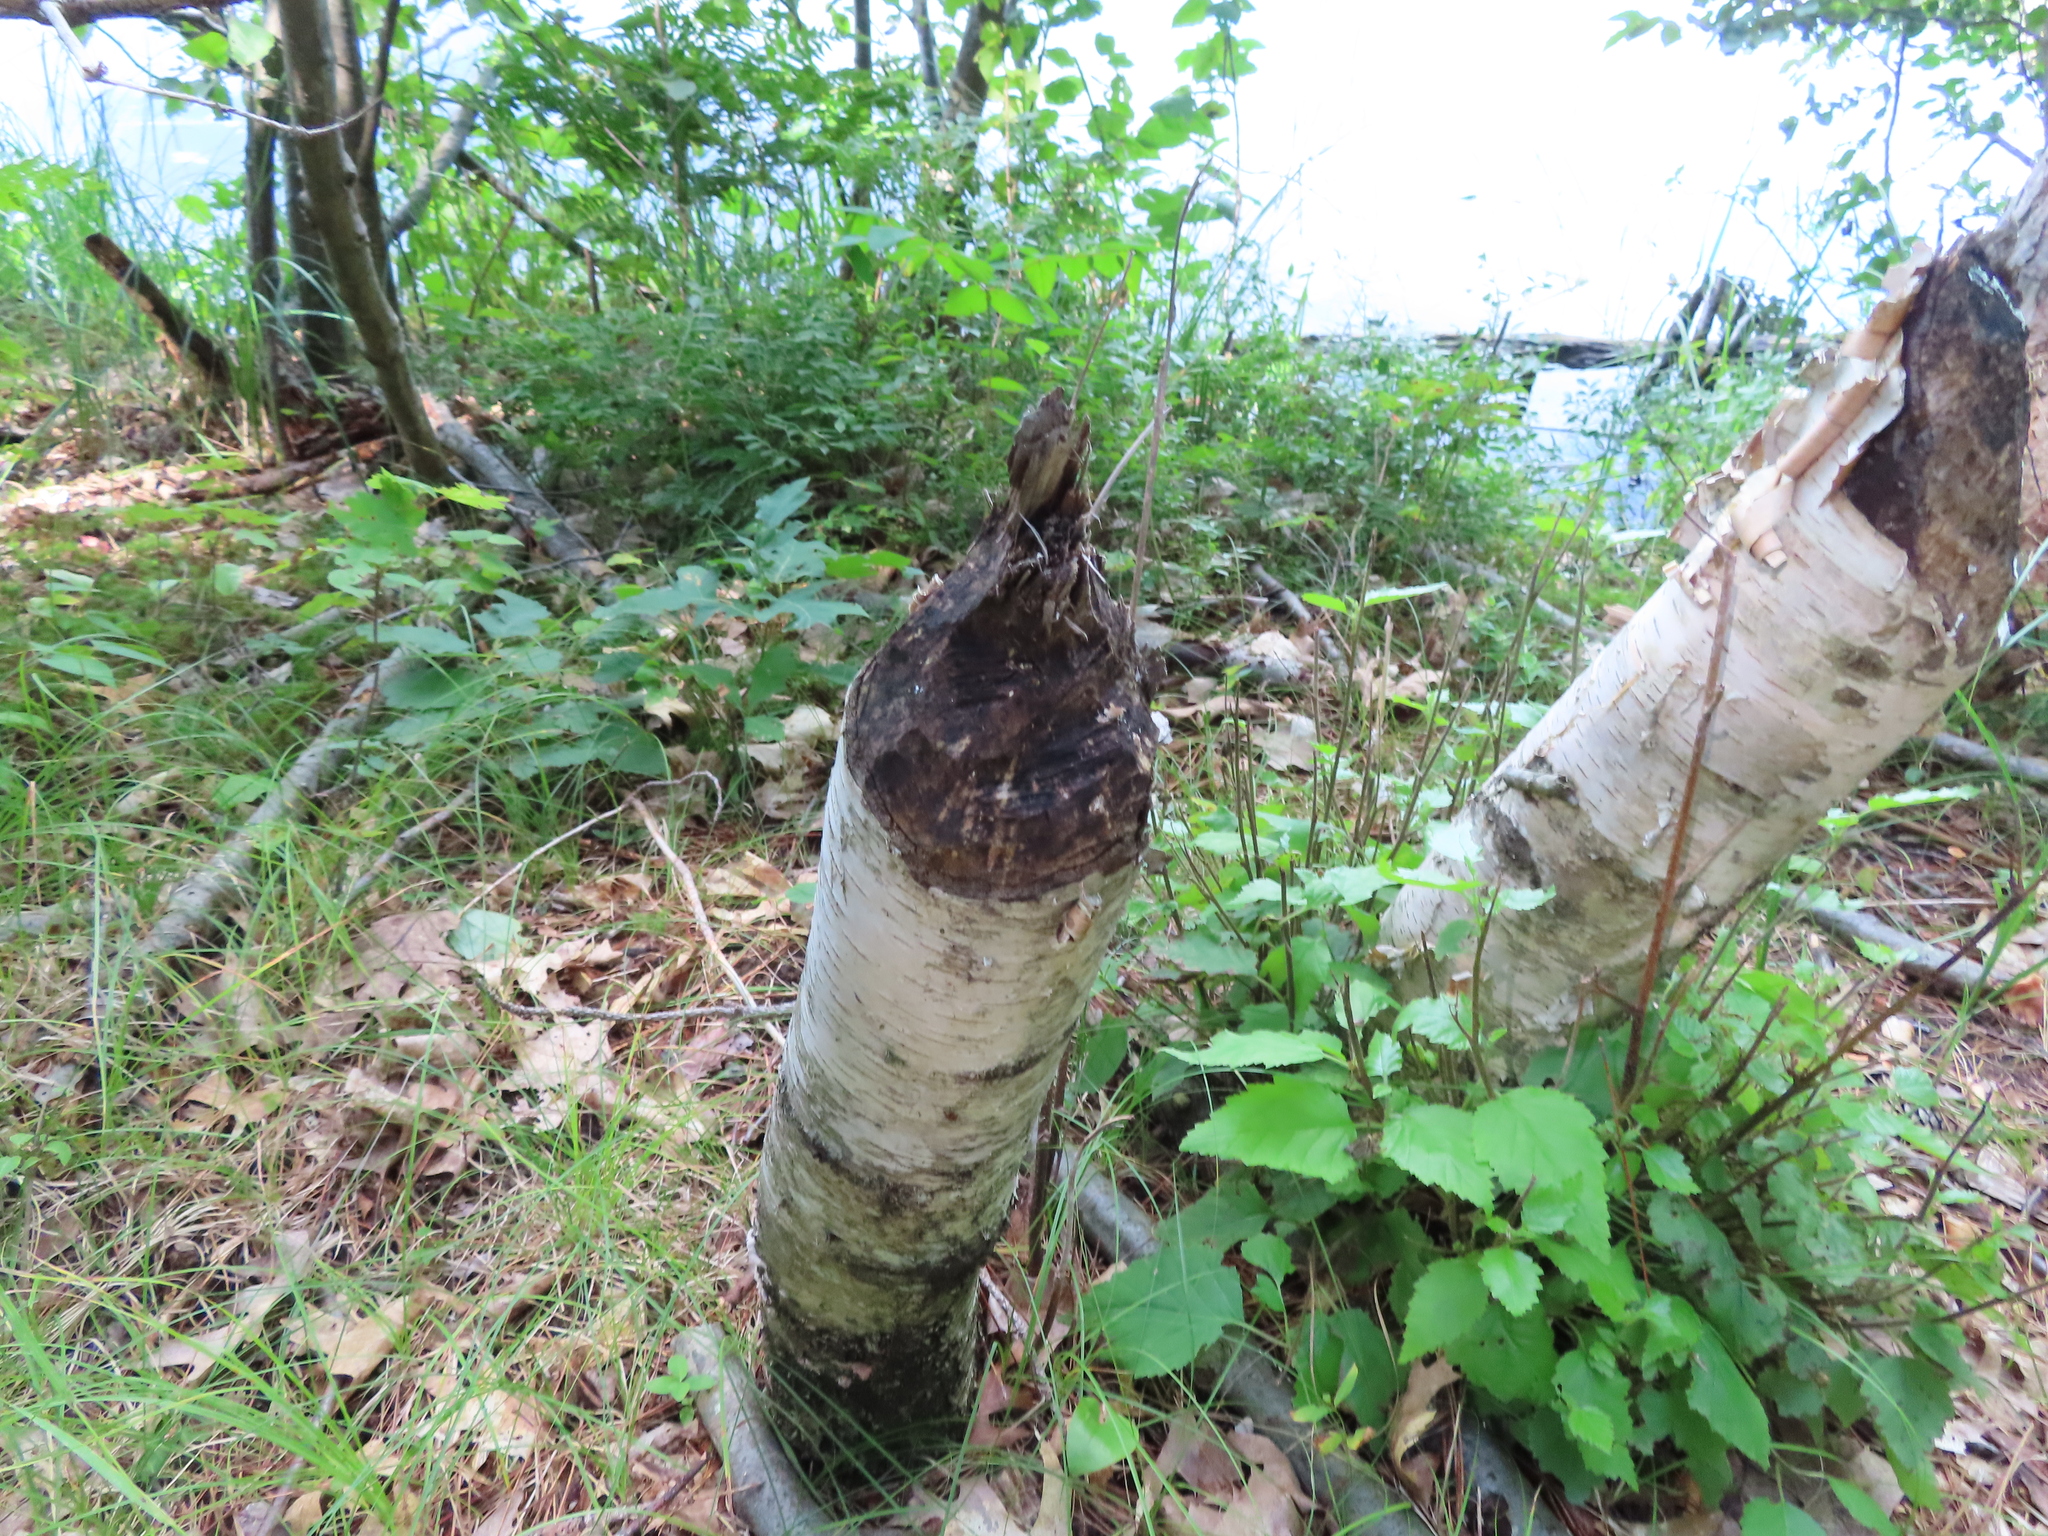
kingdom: Animalia
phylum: Chordata
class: Mammalia
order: Rodentia
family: Castoridae
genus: Castor
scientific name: Castor canadensis
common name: American beaver
